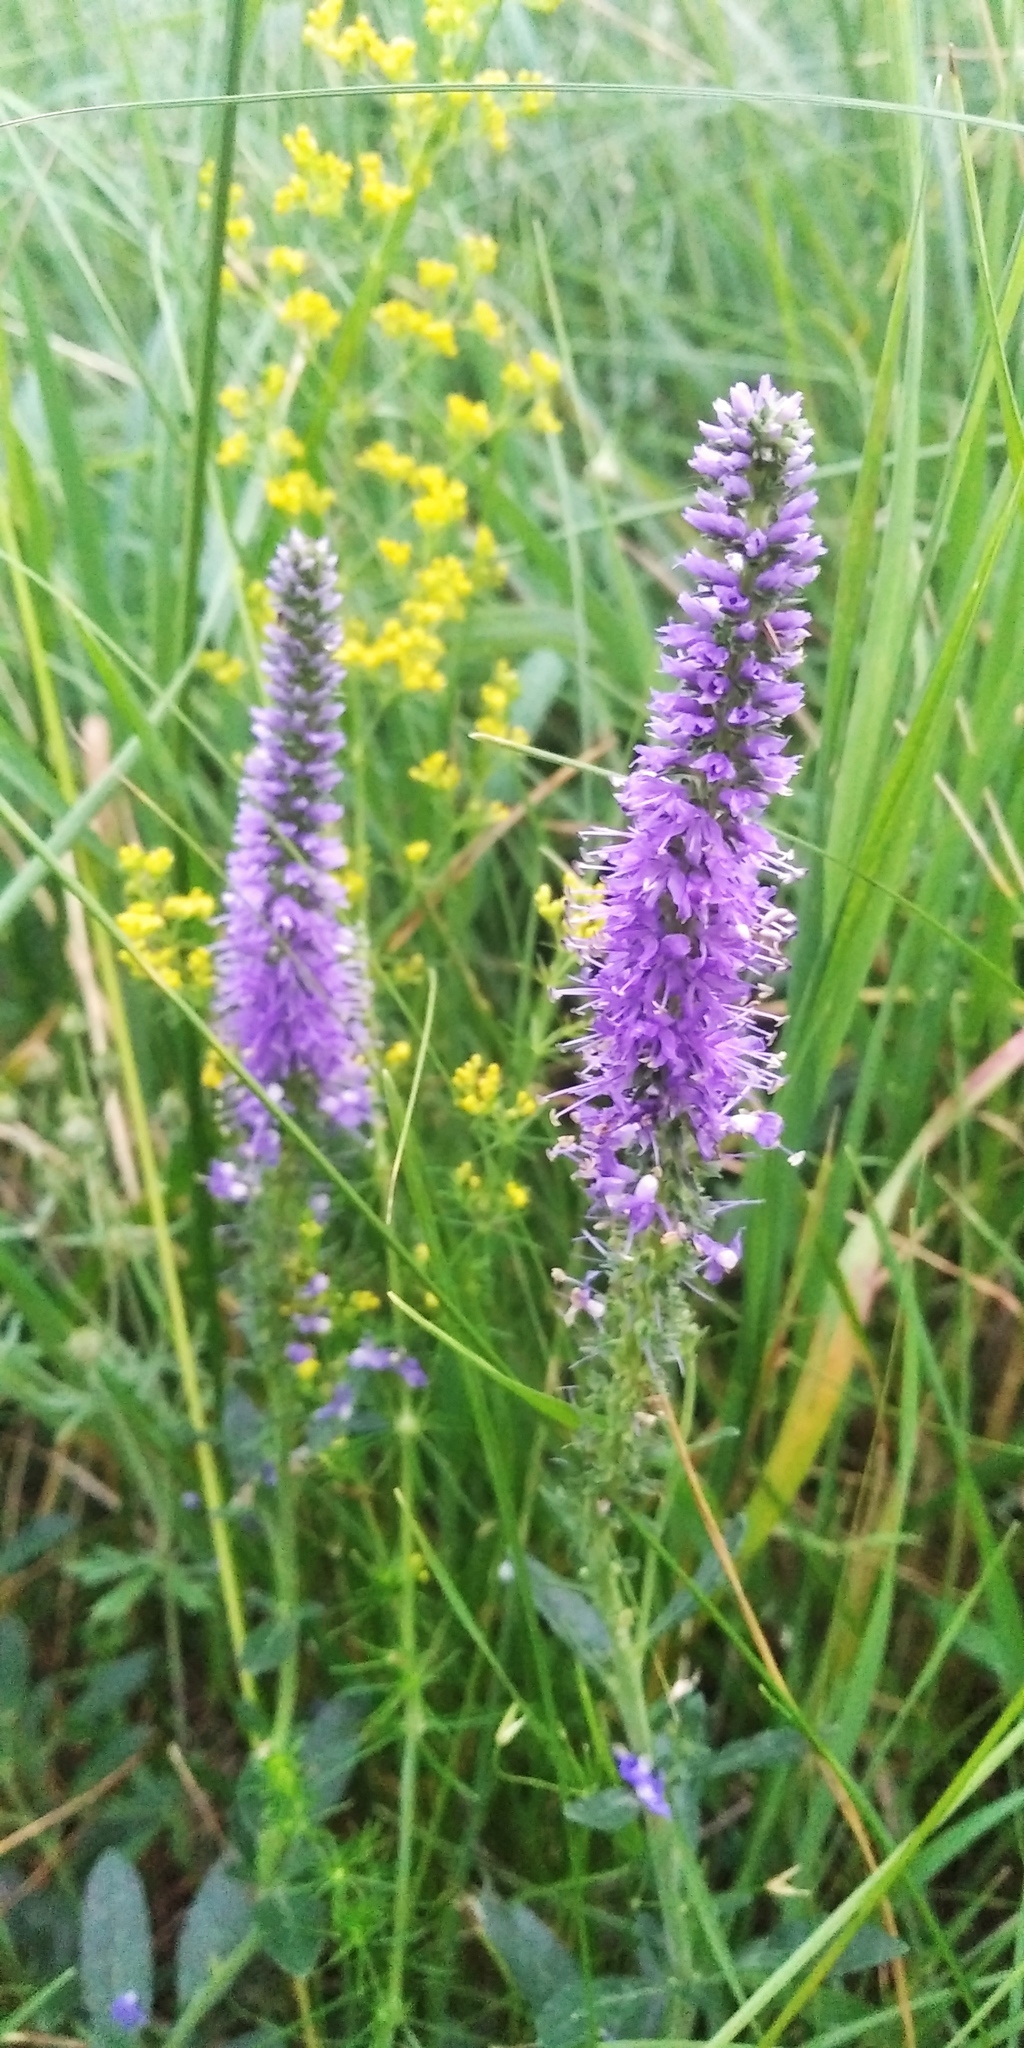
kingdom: Plantae
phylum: Tracheophyta
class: Magnoliopsida
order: Lamiales
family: Plantaginaceae
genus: Veronica
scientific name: Veronica spicata
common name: Spiked speedwell
